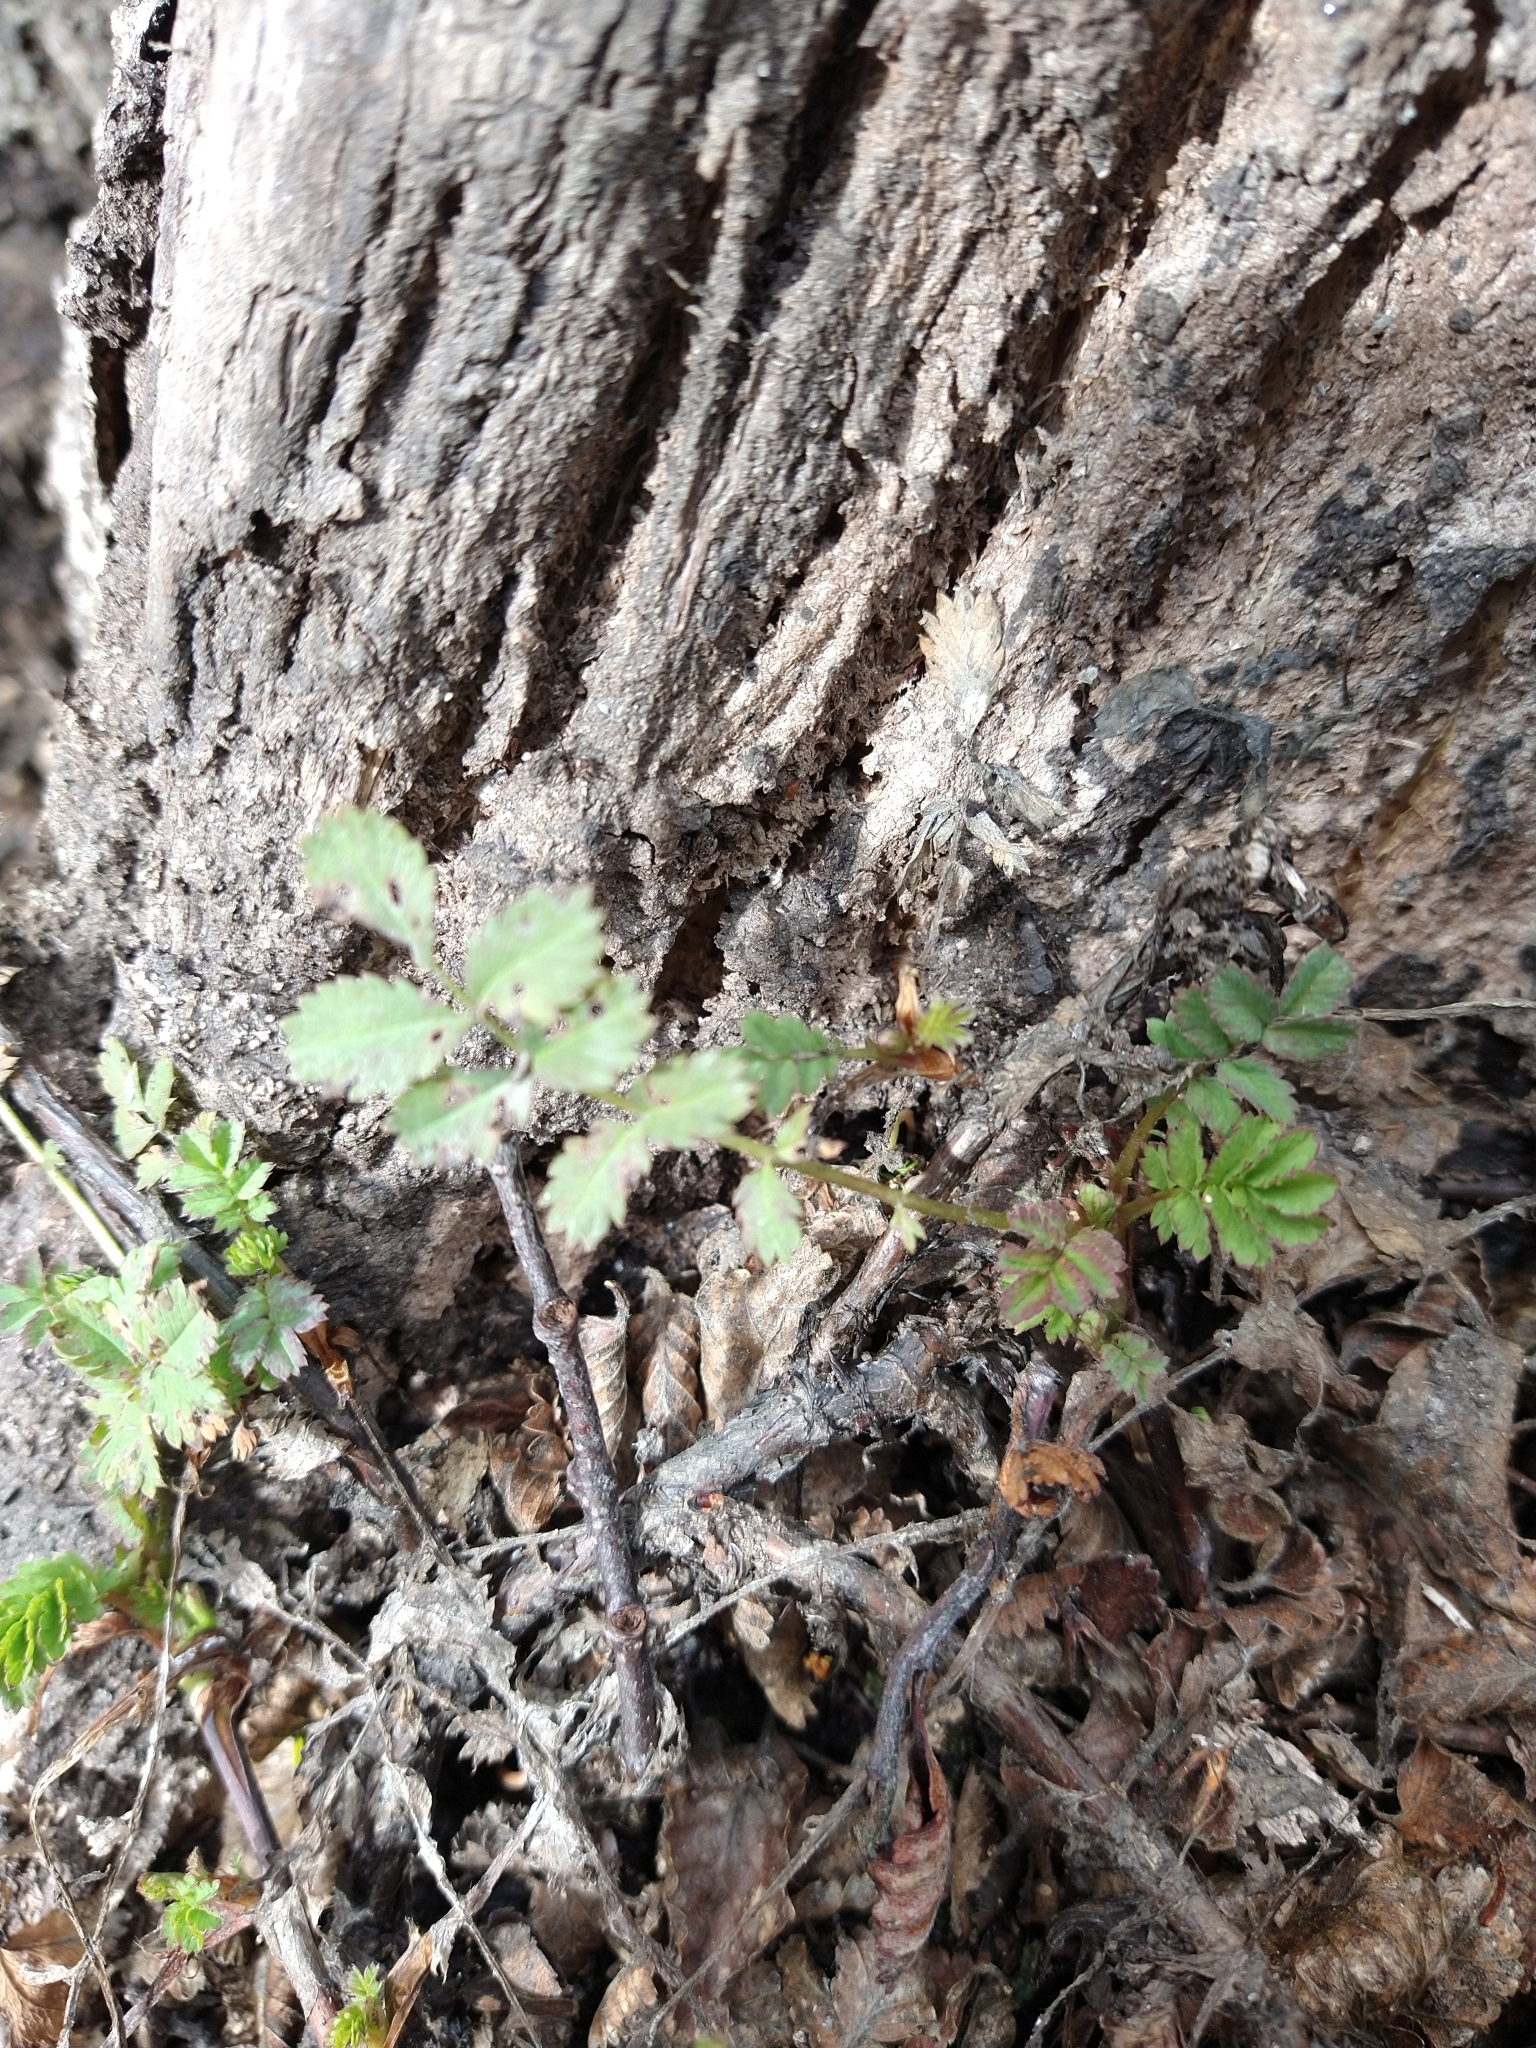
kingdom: Plantae
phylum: Tracheophyta
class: Magnoliopsida
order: Rosales
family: Rosaceae
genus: Acaena
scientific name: Acaena magellanica
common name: New zealand burr
